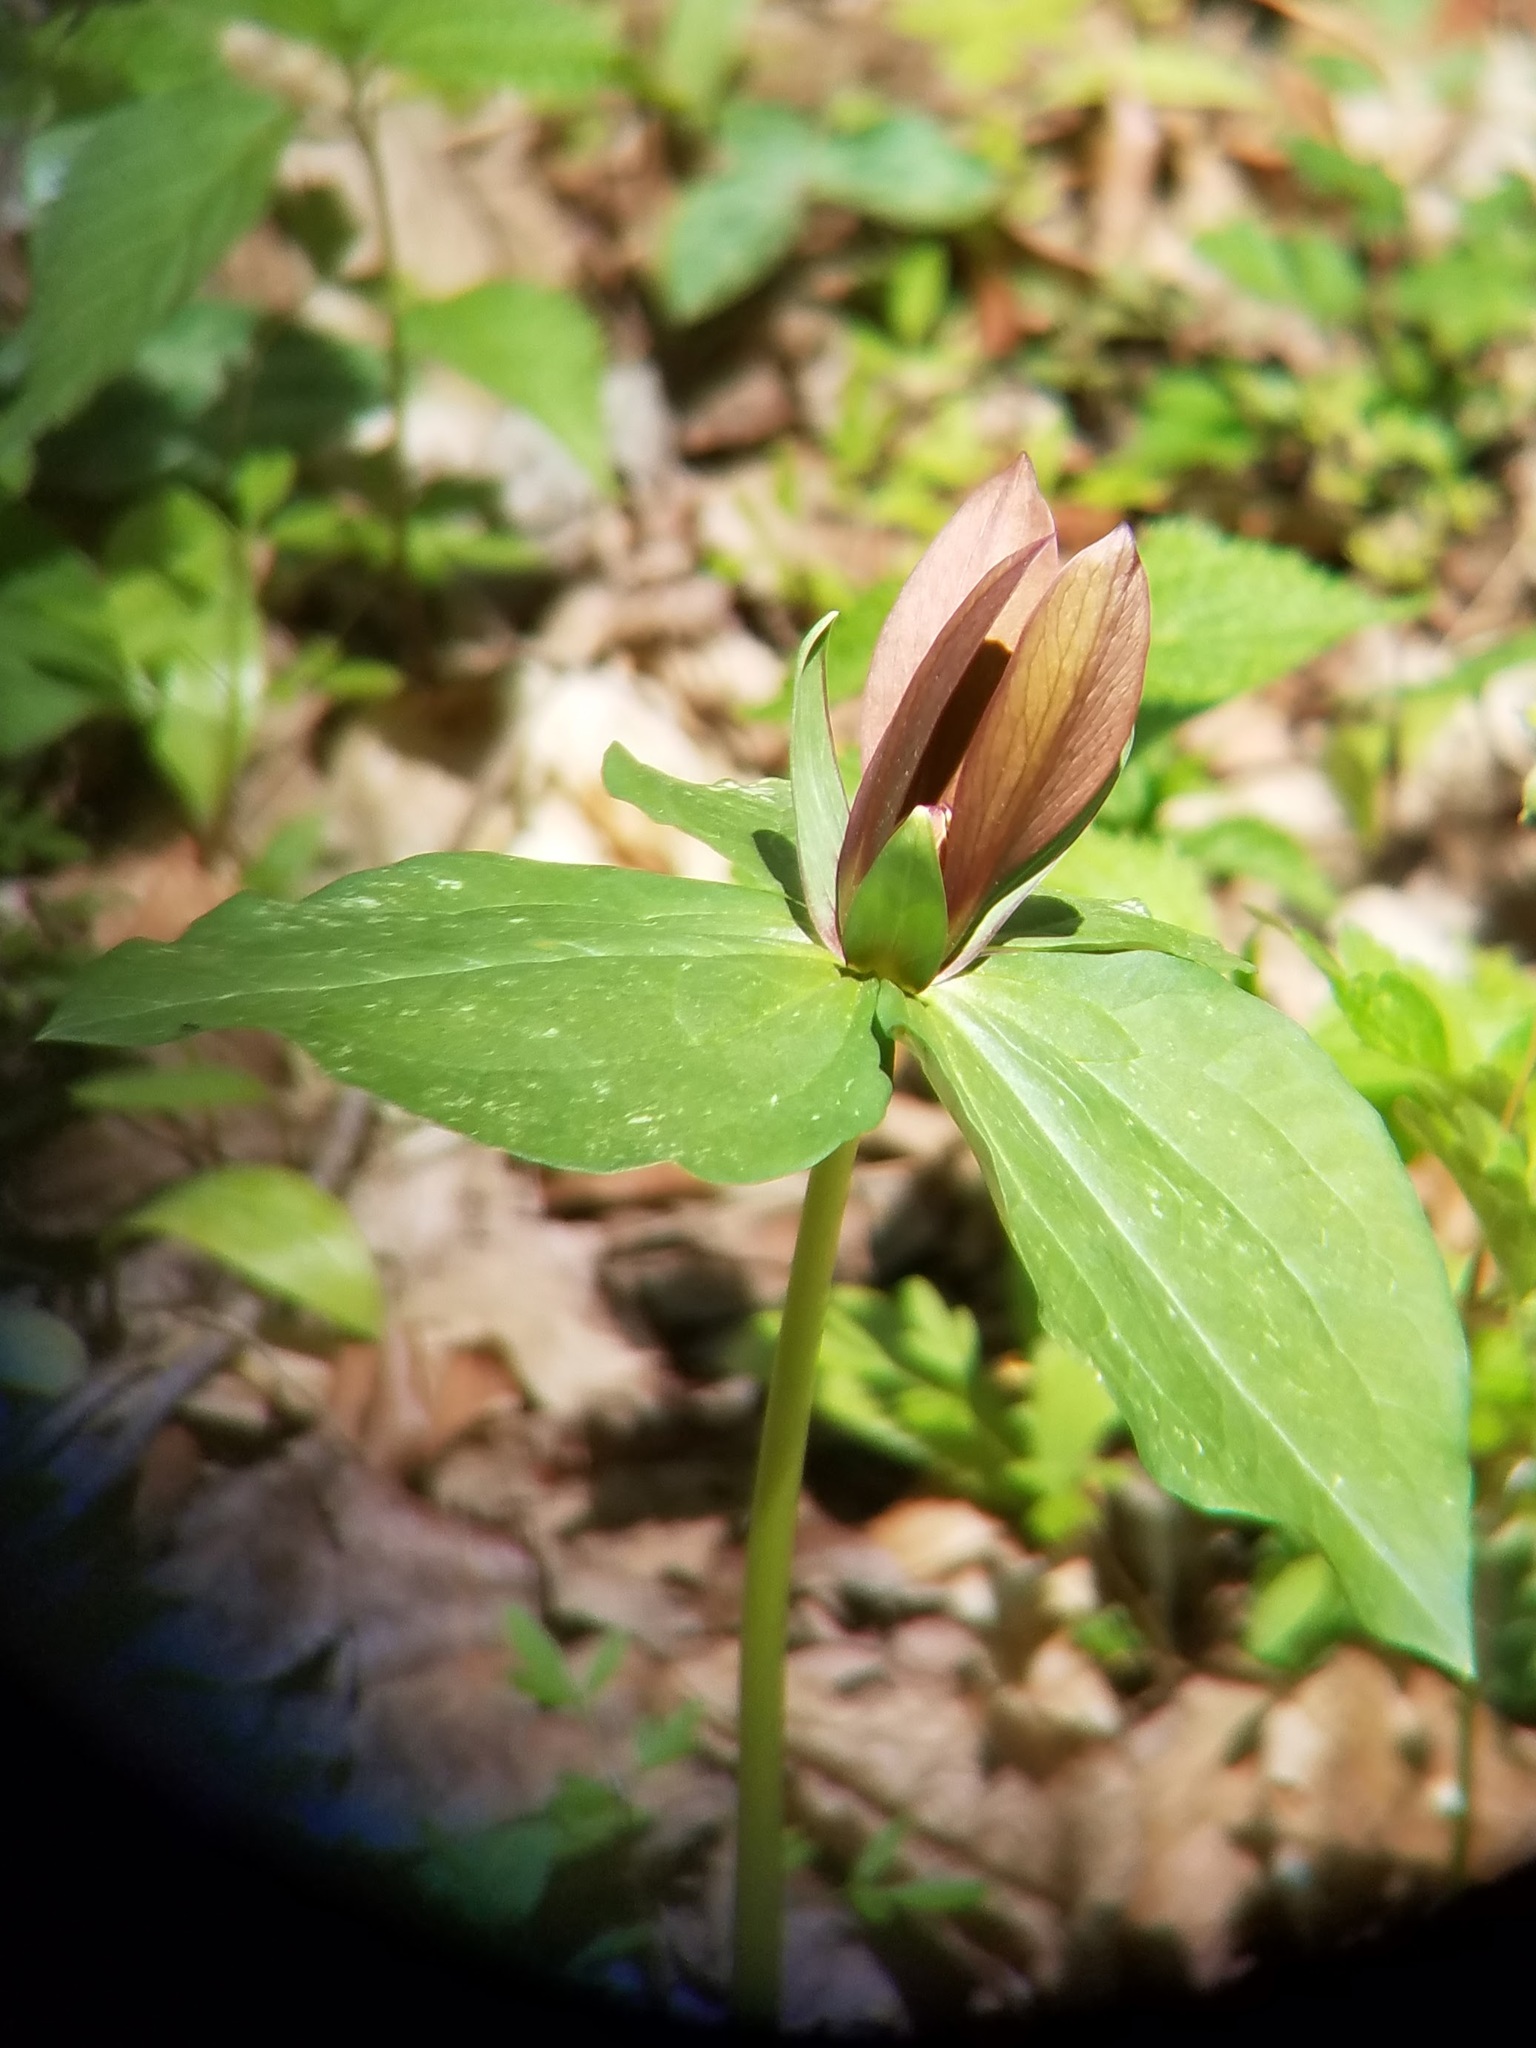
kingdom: Plantae
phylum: Tracheophyta
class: Liliopsida
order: Liliales
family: Melanthiaceae
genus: Trillium
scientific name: Trillium cuneatum
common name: Cuneate trillium
